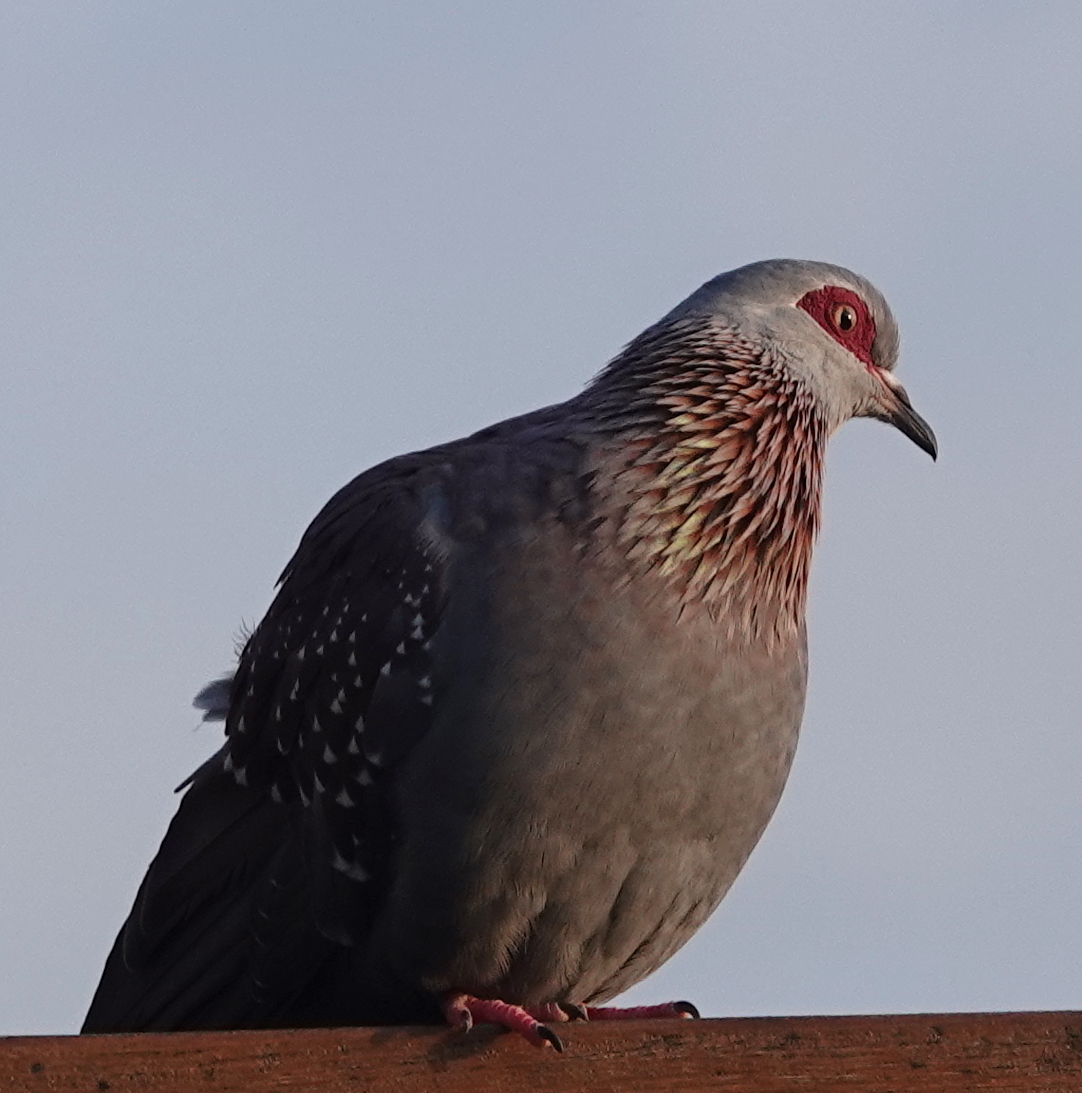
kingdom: Animalia
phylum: Chordata
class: Aves
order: Columbiformes
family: Columbidae
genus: Columba
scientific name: Columba guinea
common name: Speckled pigeon
